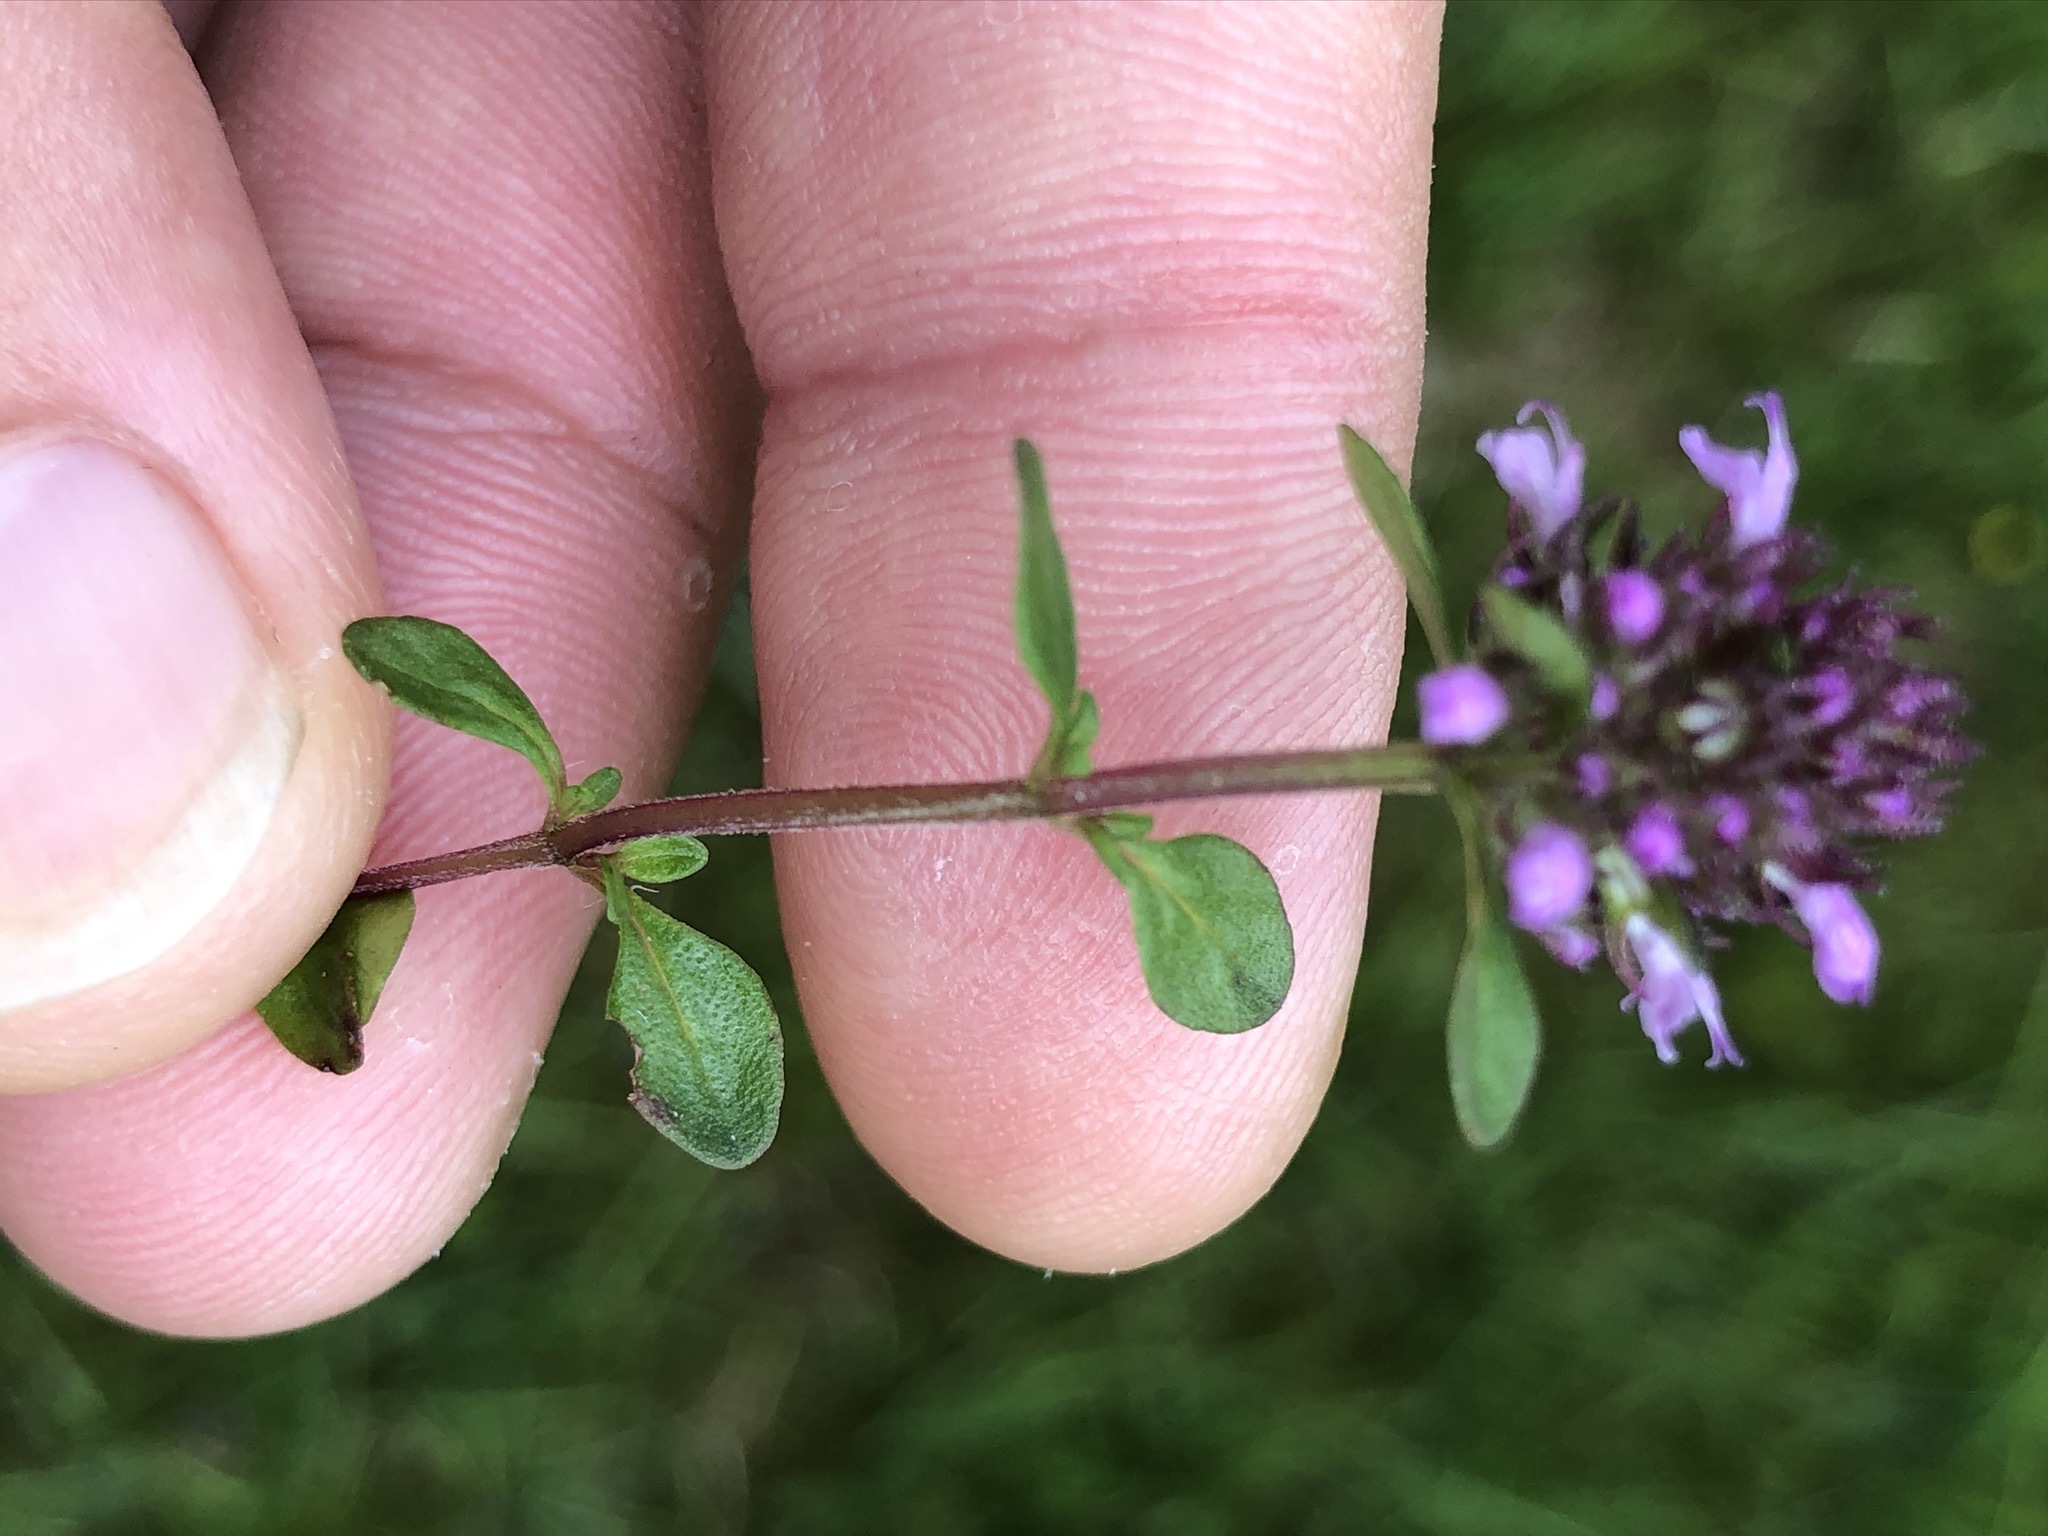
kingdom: Plantae
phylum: Tracheophyta
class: Magnoliopsida
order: Lamiales
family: Lamiaceae
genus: Thymus
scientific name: Thymus pulegioides
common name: Large thyme
